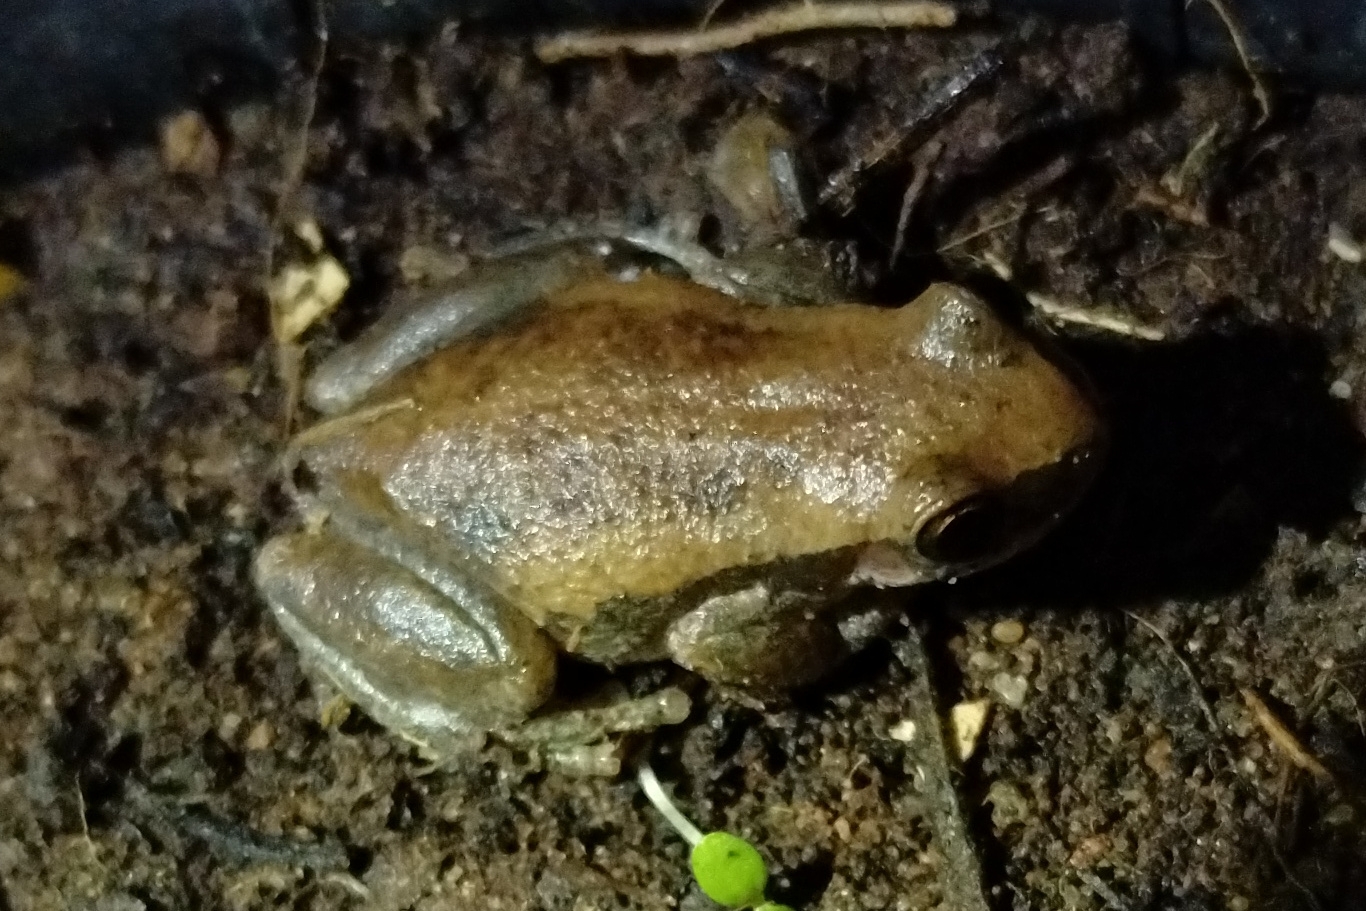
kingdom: Animalia
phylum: Chordata
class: Amphibia
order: Anura
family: Pelodryadidae
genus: Litoria
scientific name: Litoria rubella
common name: Desert tree frog
